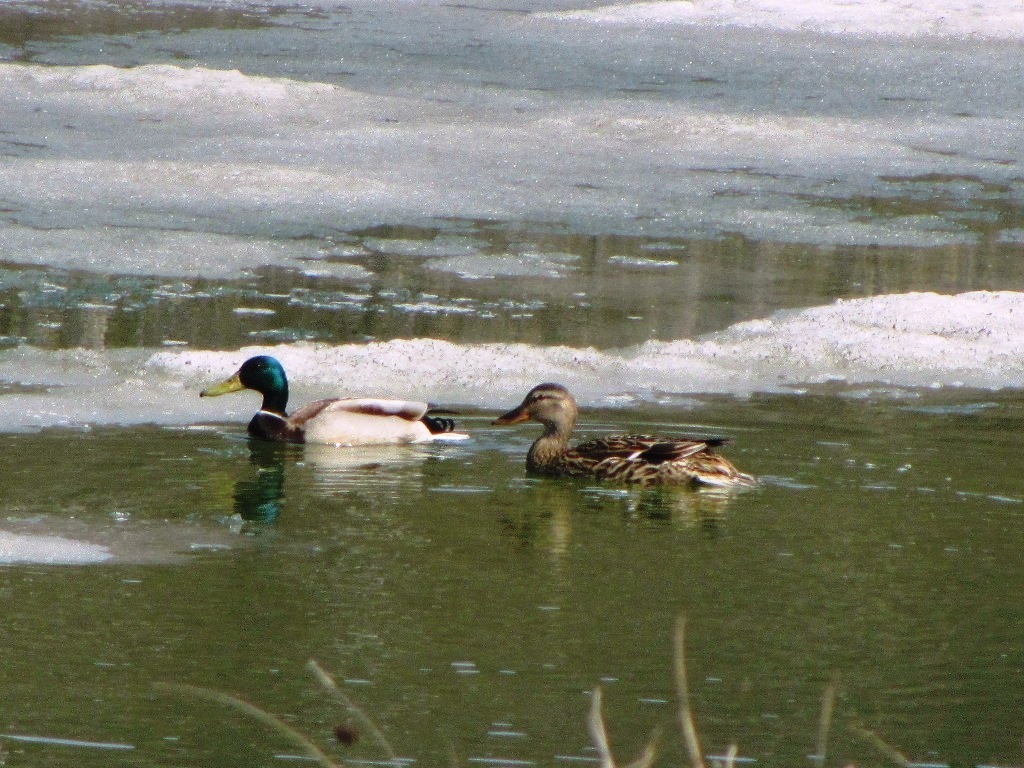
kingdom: Animalia
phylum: Chordata
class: Aves
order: Anseriformes
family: Anatidae
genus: Anas
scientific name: Anas platyrhynchos
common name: Mallard
